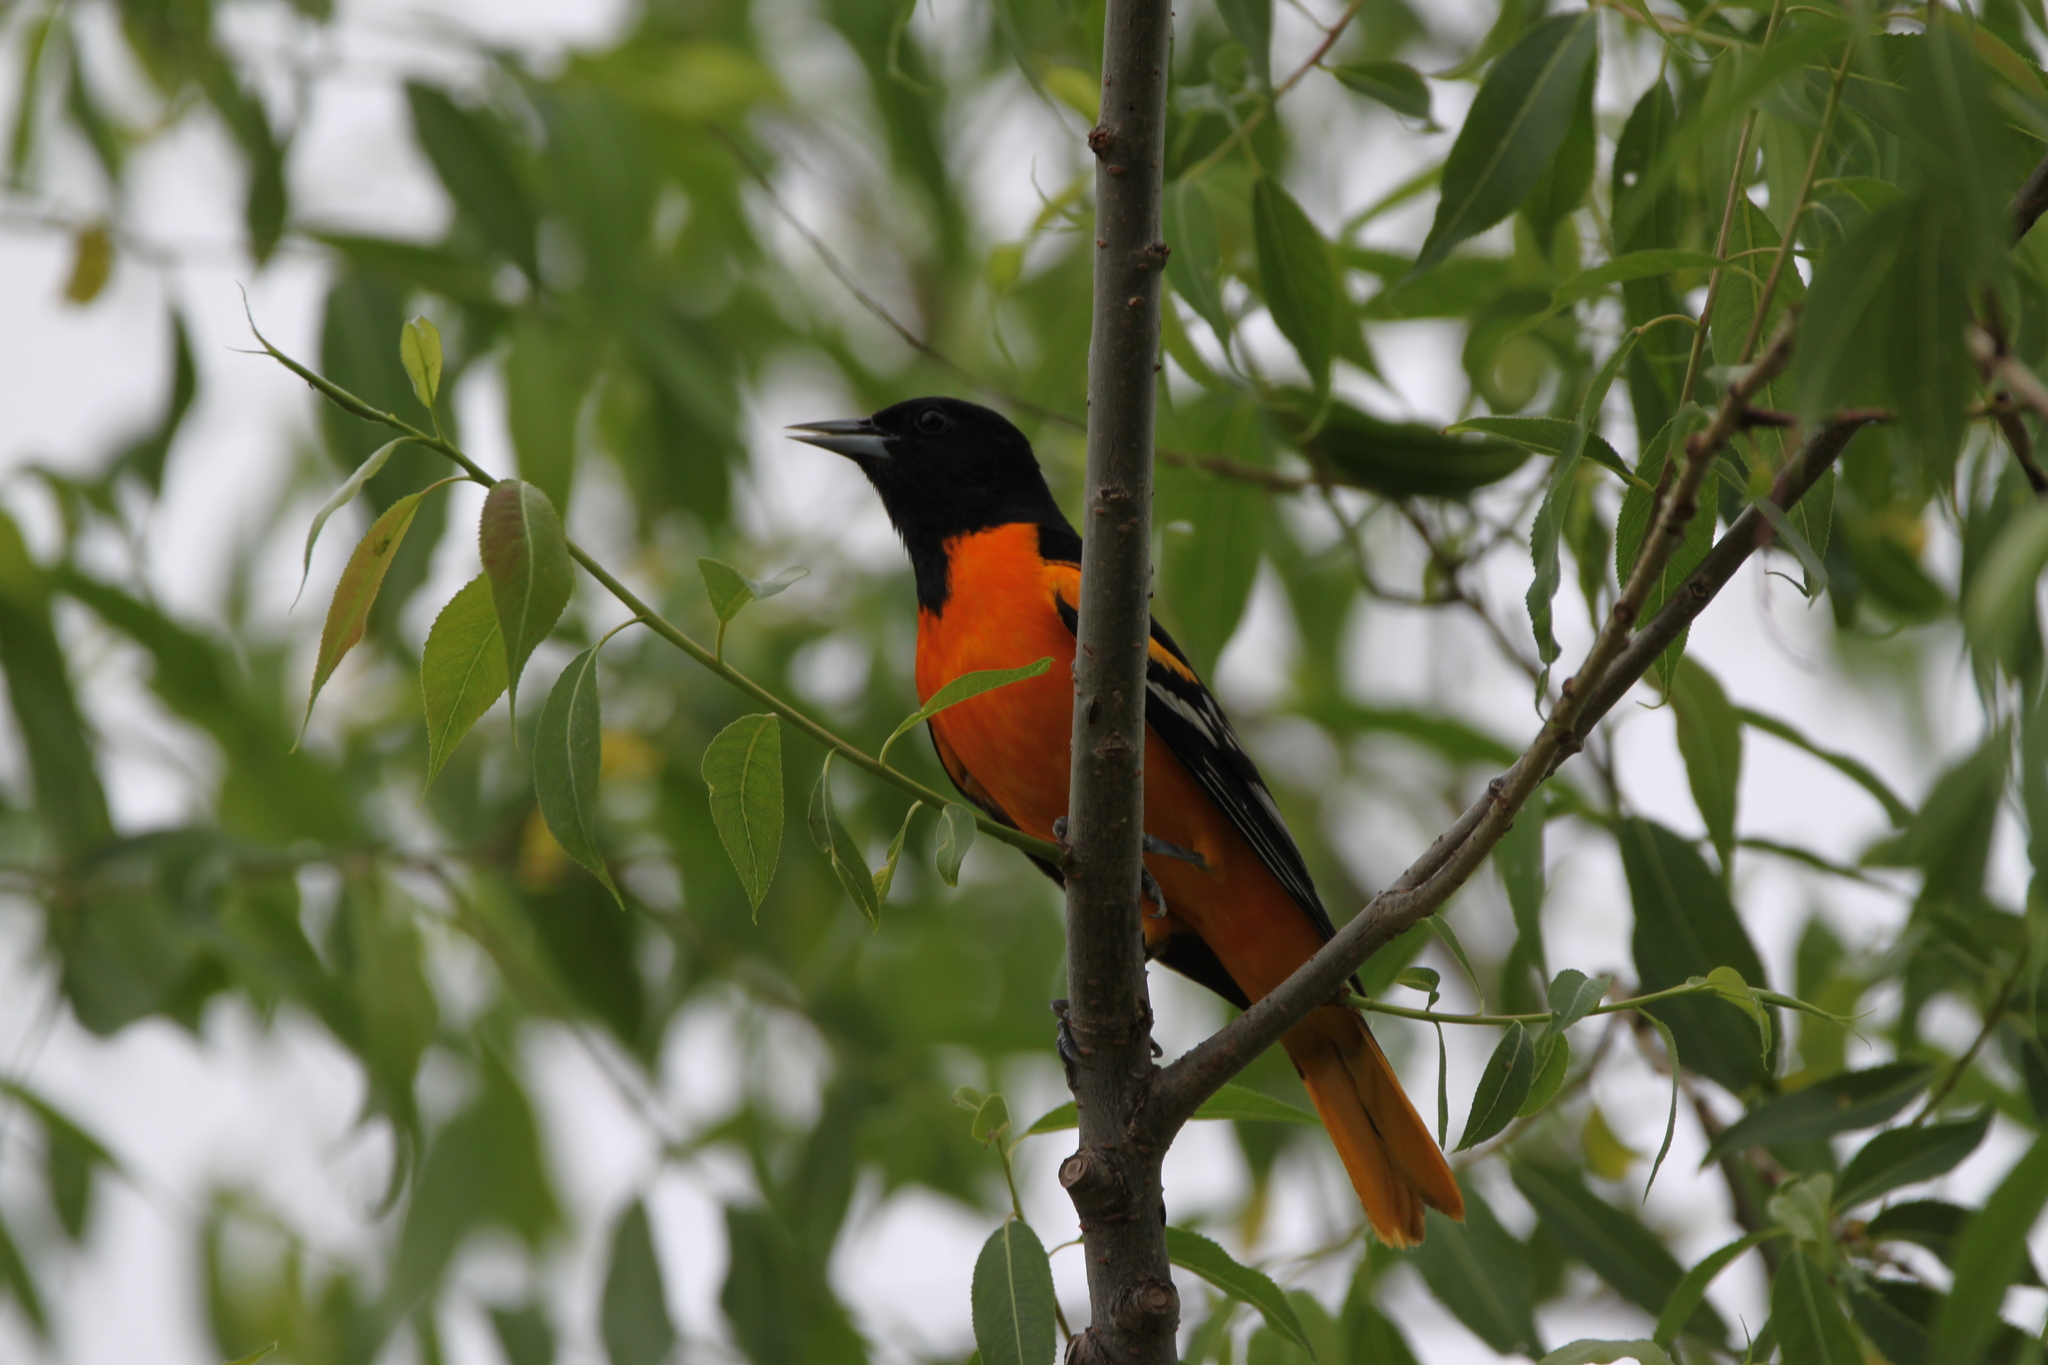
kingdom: Animalia
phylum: Chordata
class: Aves
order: Passeriformes
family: Icteridae
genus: Icterus
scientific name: Icterus galbula
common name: Baltimore oriole
